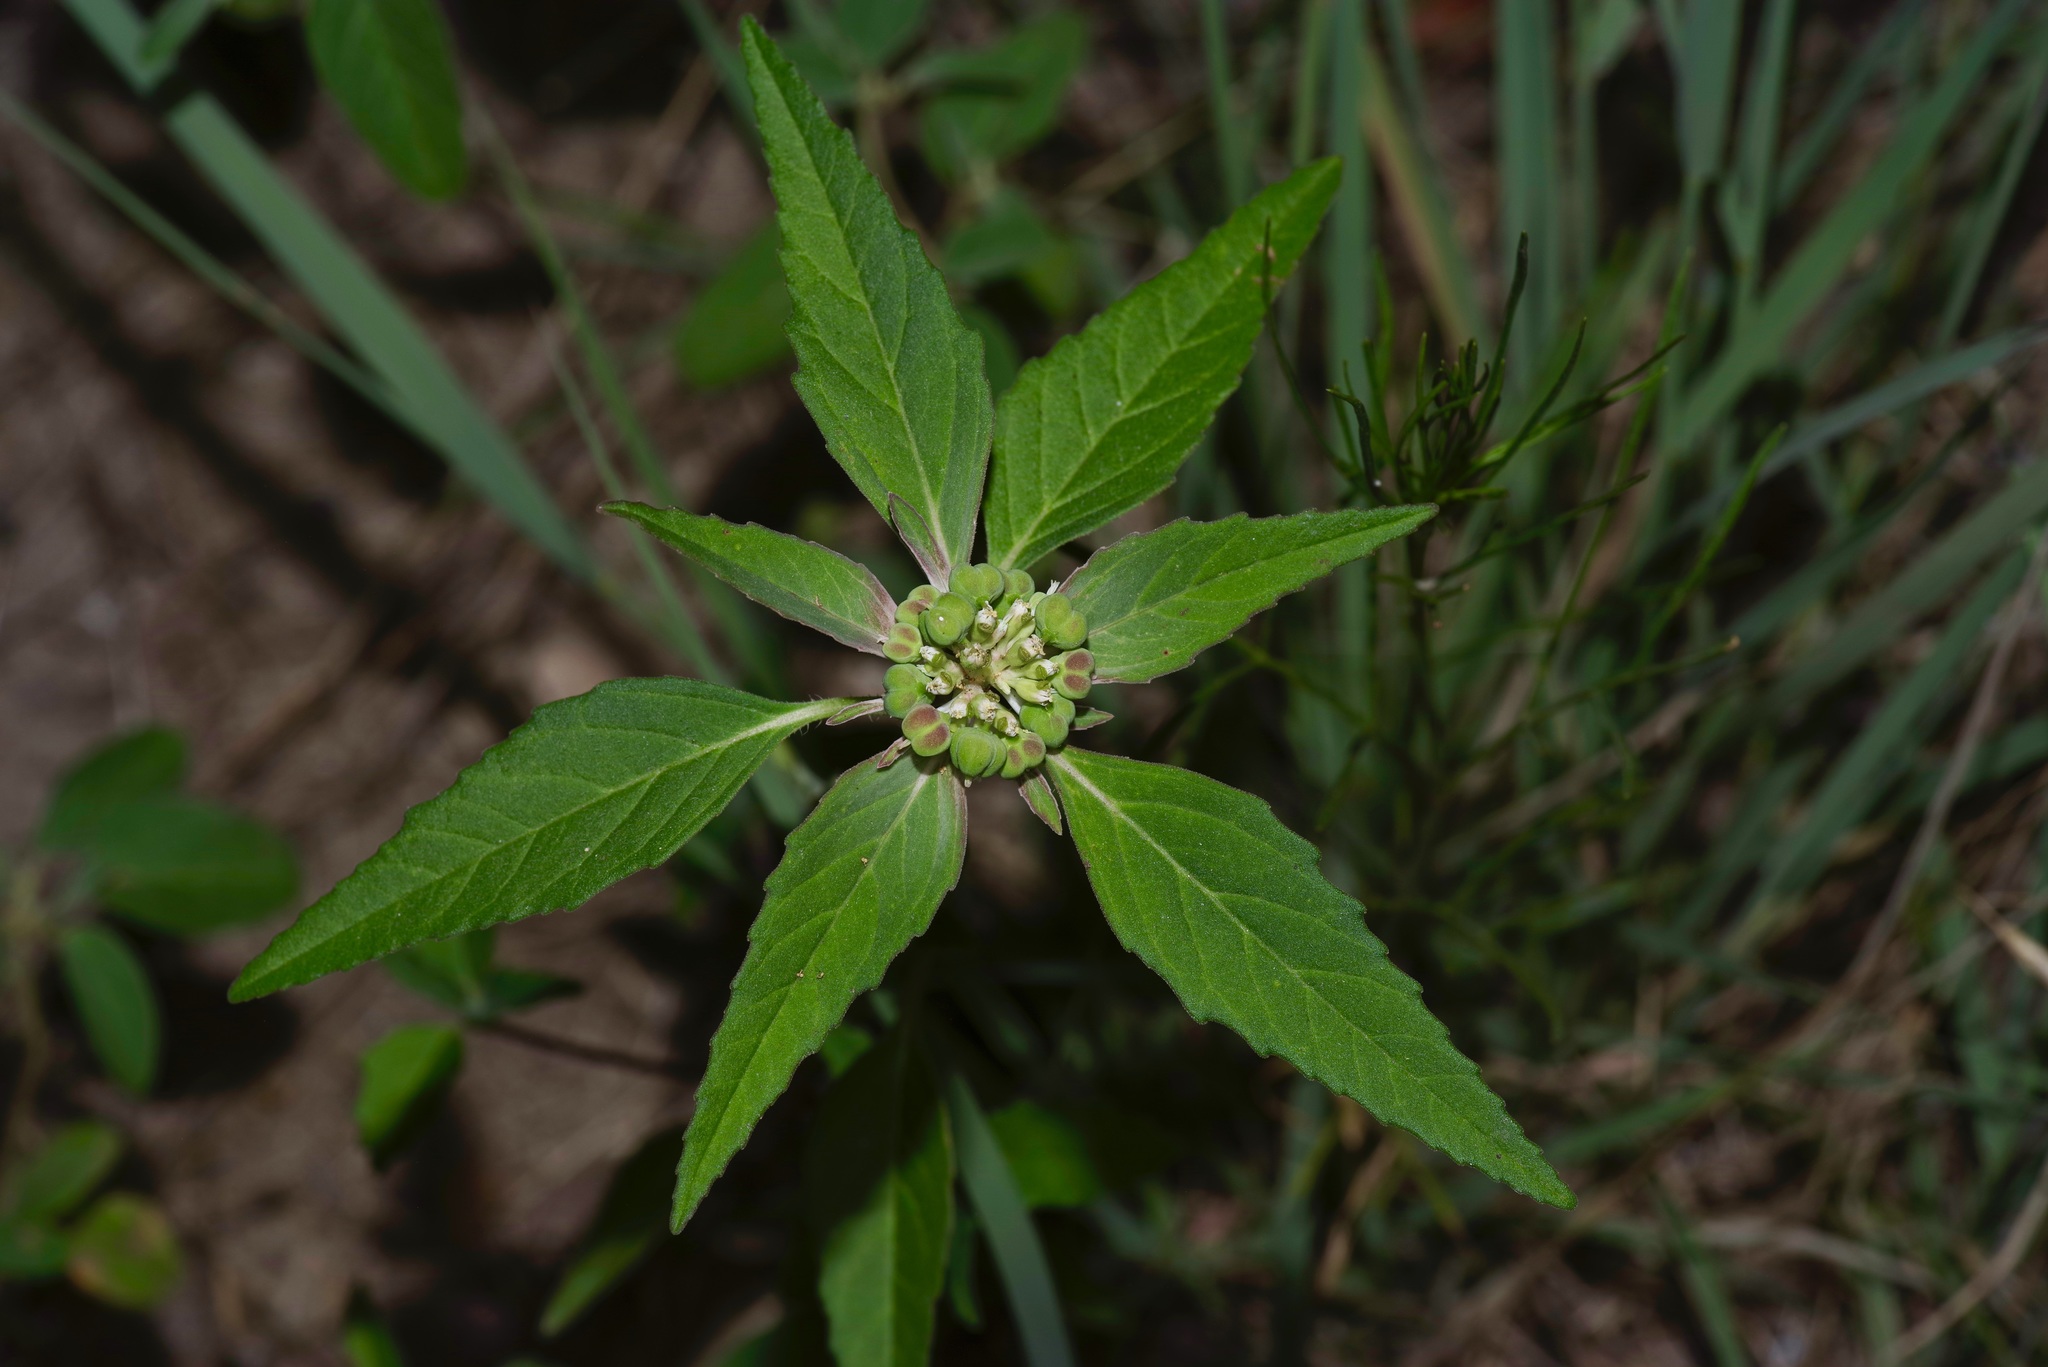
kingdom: Plantae
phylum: Tracheophyta
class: Magnoliopsida
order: Malpighiales
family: Euphorbiaceae
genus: Euphorbia
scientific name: Euphorbia dentata
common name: Dentate spurge
